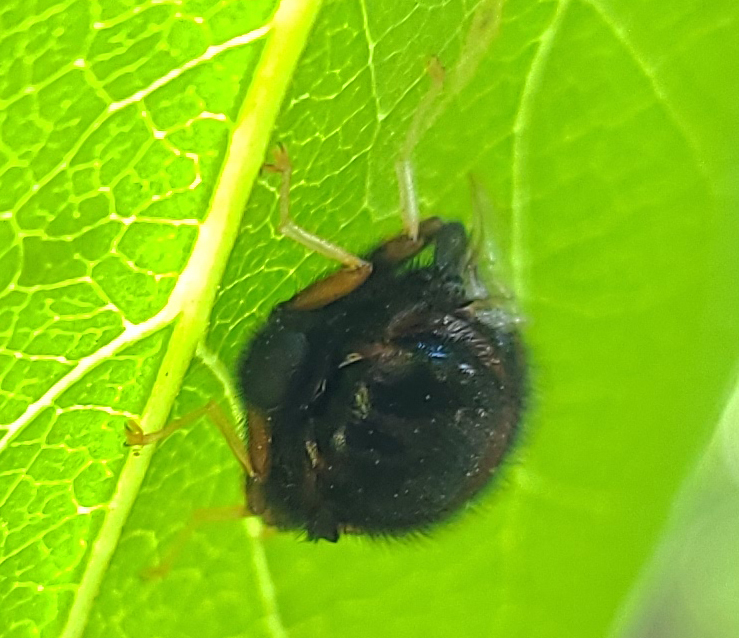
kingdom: Animalia
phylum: Arthropoda
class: Insecta
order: Diptera
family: Acroceridae
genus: Pterodontia
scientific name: Pterodontia flavipes
